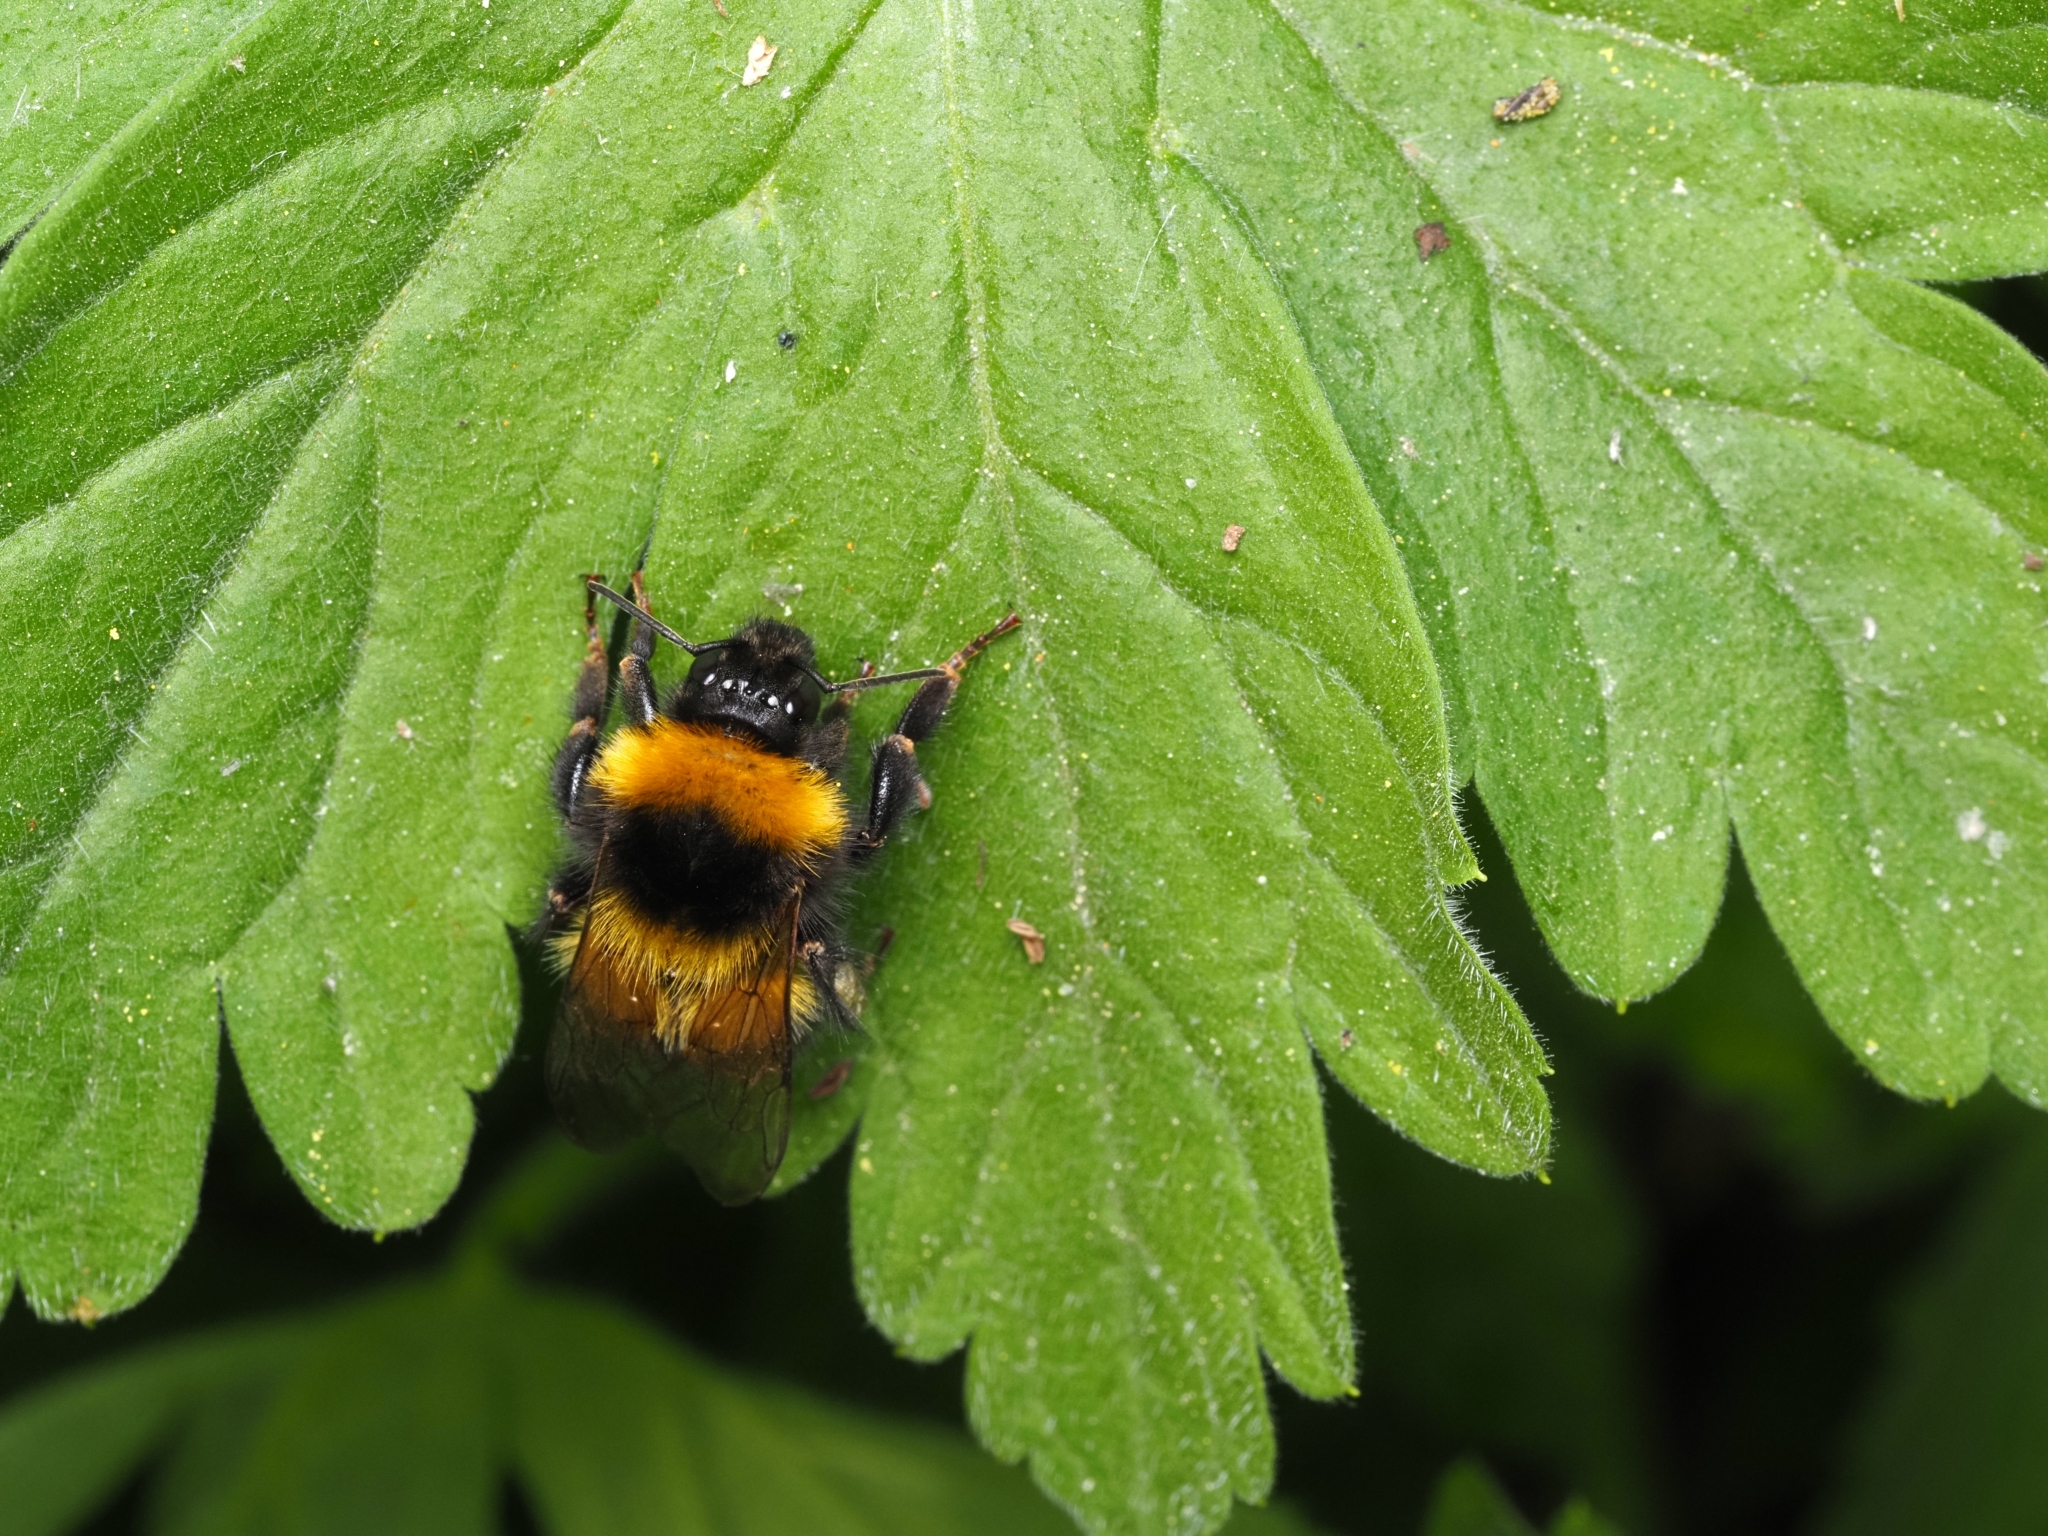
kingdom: Animalia
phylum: Arthropoda
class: Insecta
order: Hymenoptera
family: Apidae
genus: Bombus
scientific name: Bombus hortorum
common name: Garden bumblebee
